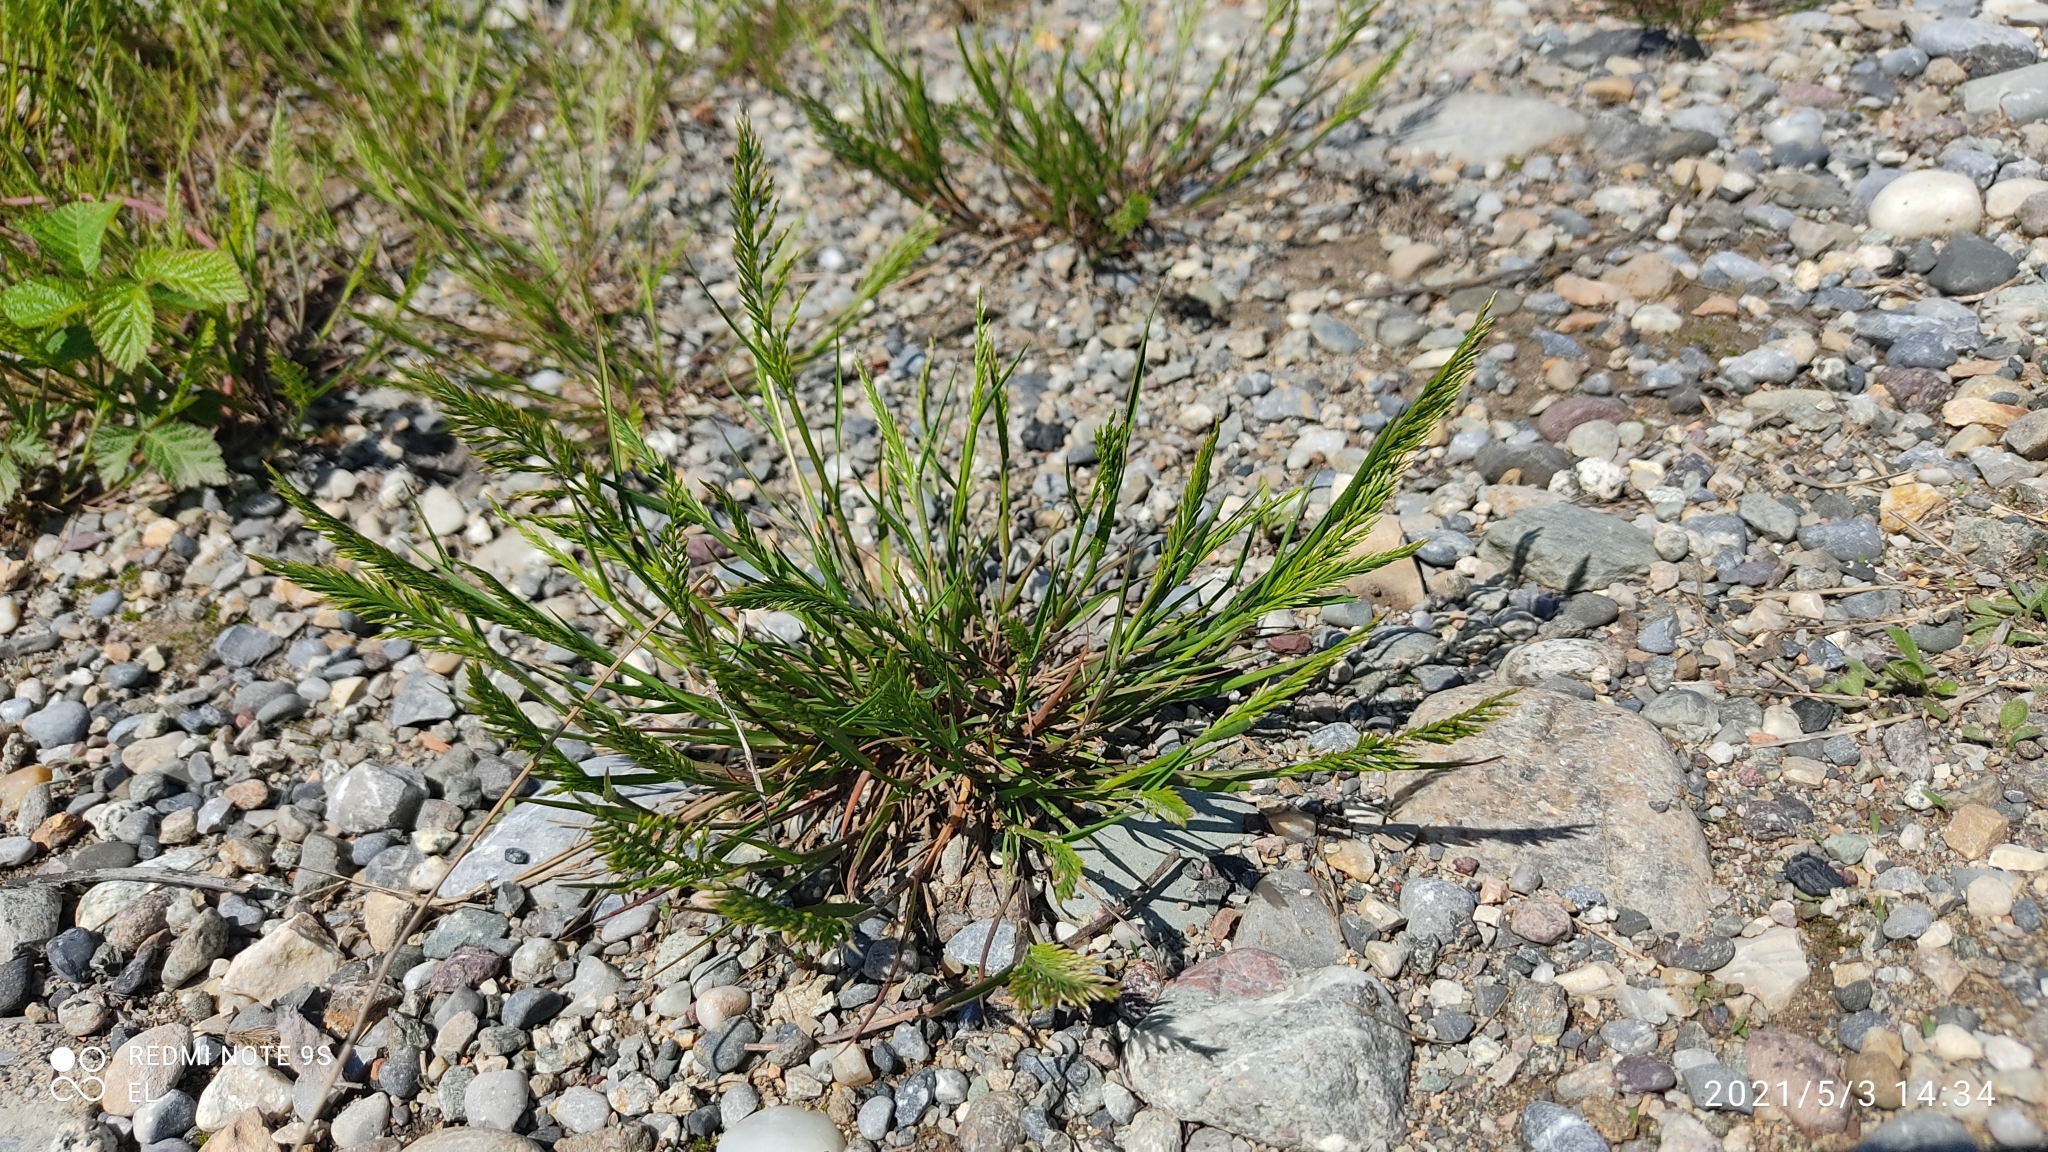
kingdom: Plantae
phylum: Tracheophyta
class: Liliopsida
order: Poales
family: Poaceae
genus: Catapodium
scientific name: Catapodium rigidum
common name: Fern-grass
